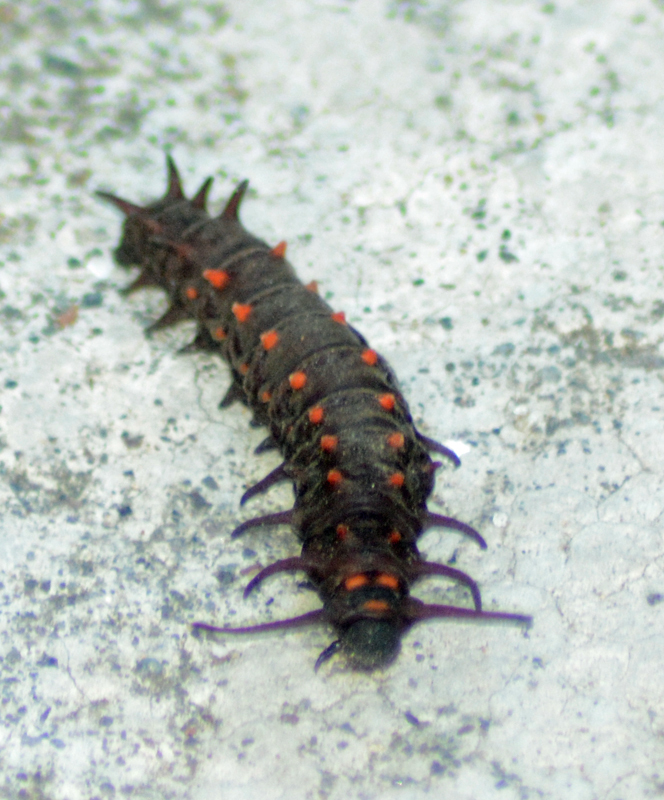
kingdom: Animalia
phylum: Arthropoda
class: Insecta
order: Lepidoptera
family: Papilionidae
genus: Battus
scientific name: Battus philenor
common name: Pipevine swallowtail
